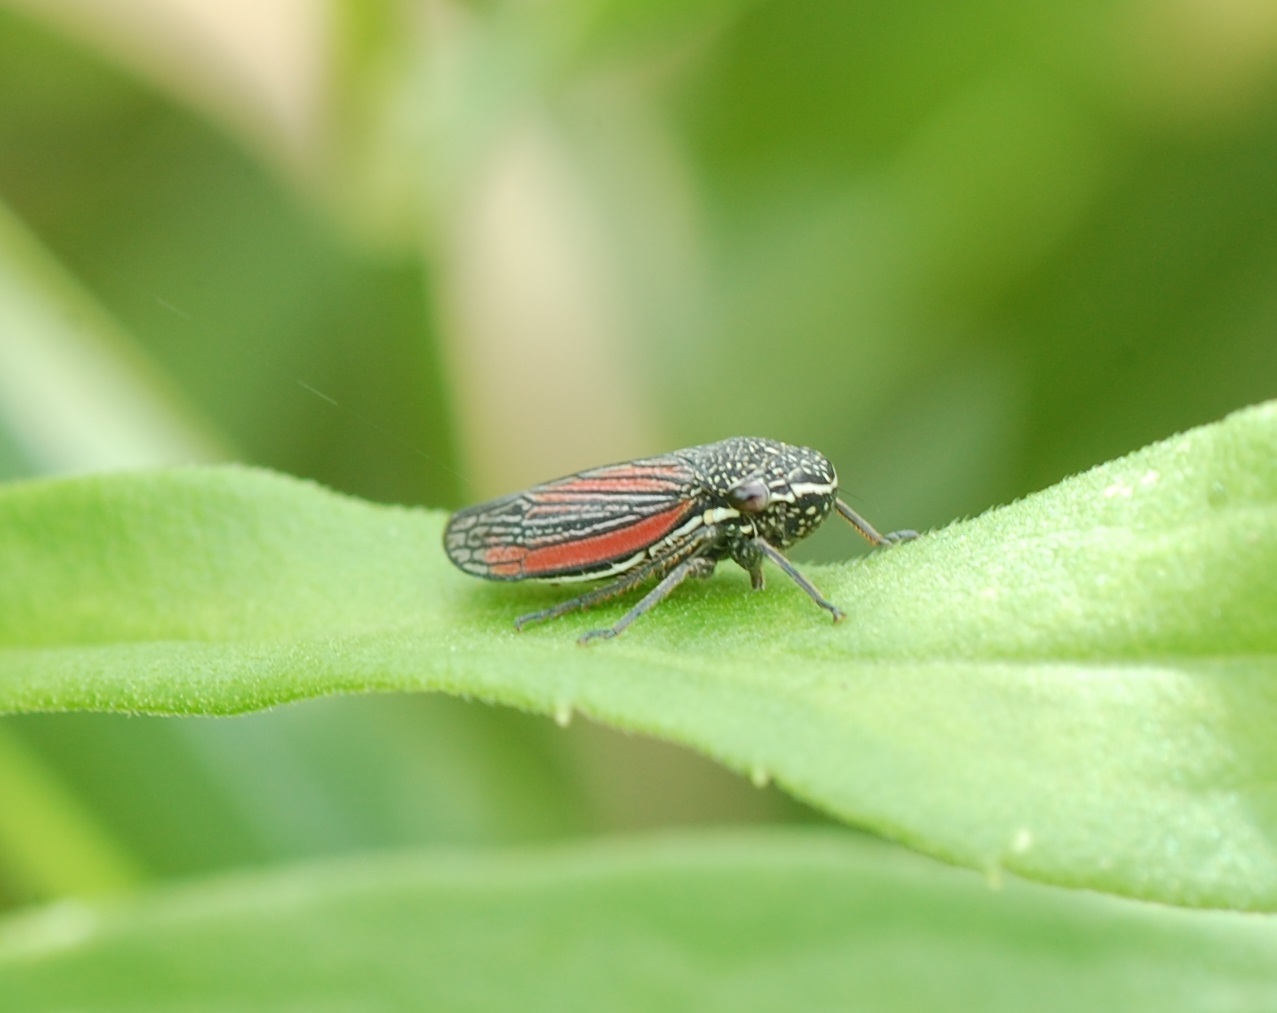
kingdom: Animalia
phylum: Arthropoda
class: Insecta
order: Hemiptera
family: Cicadellidae
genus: Cuerna
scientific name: Cuerna striata
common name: Striped leafhopper
